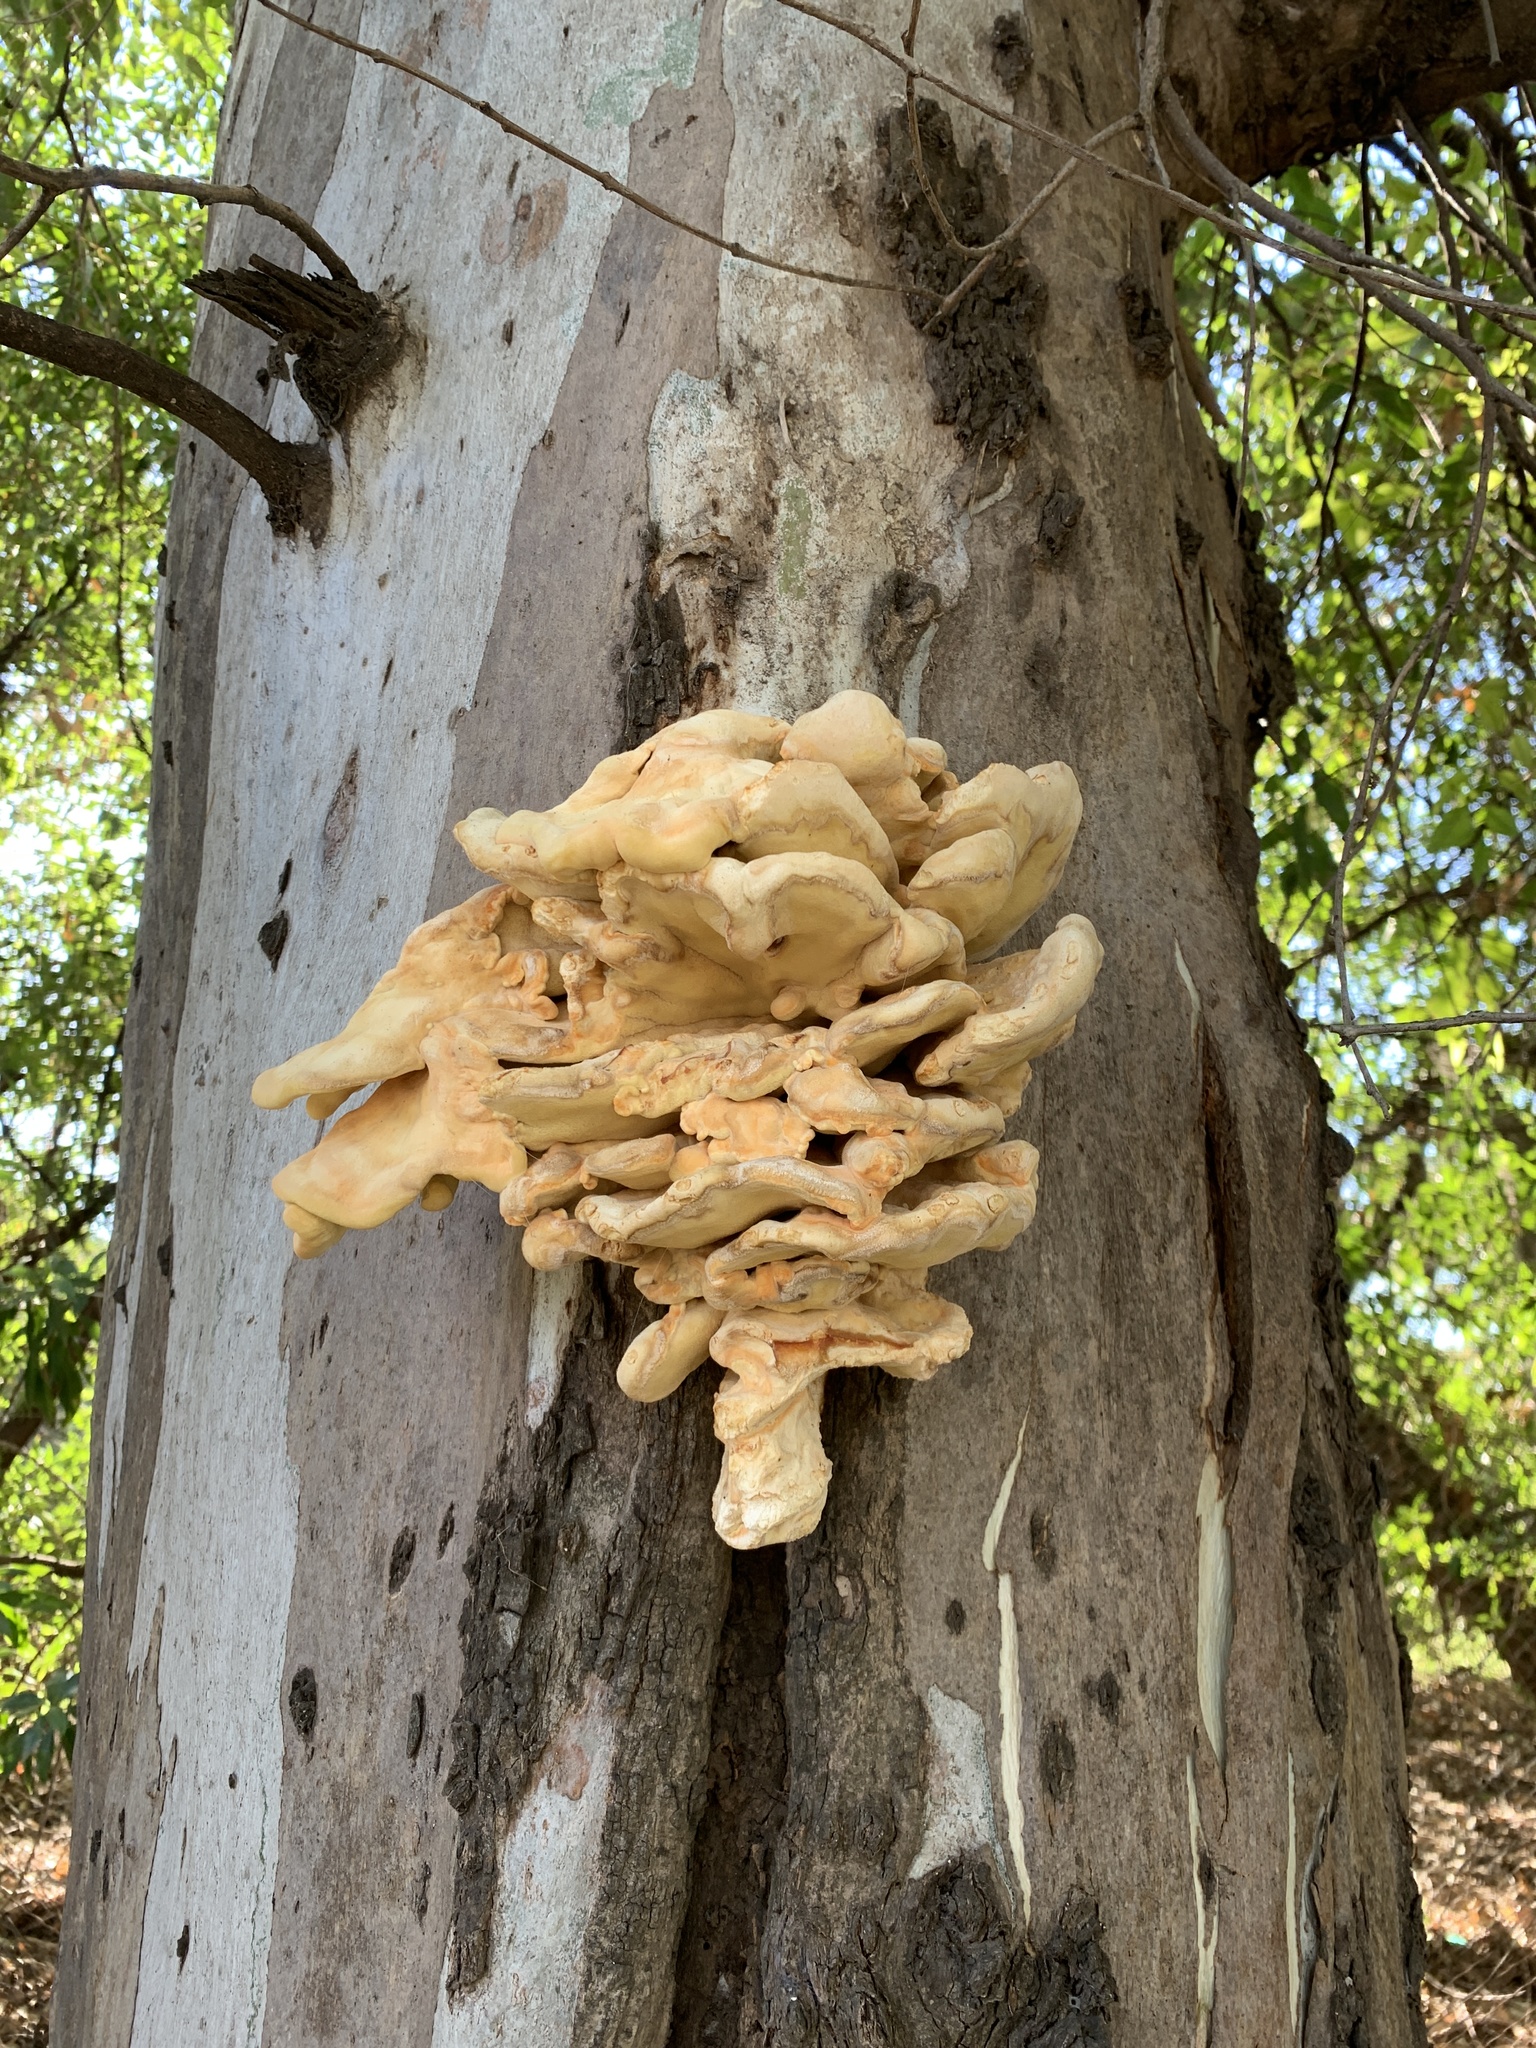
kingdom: Fungi
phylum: Basidiomycota
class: Agaricomycetes
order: Polyporales
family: Laetiporaceae
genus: Laetiporus
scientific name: Laetiporus sulphureus
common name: Chicken of the woods
